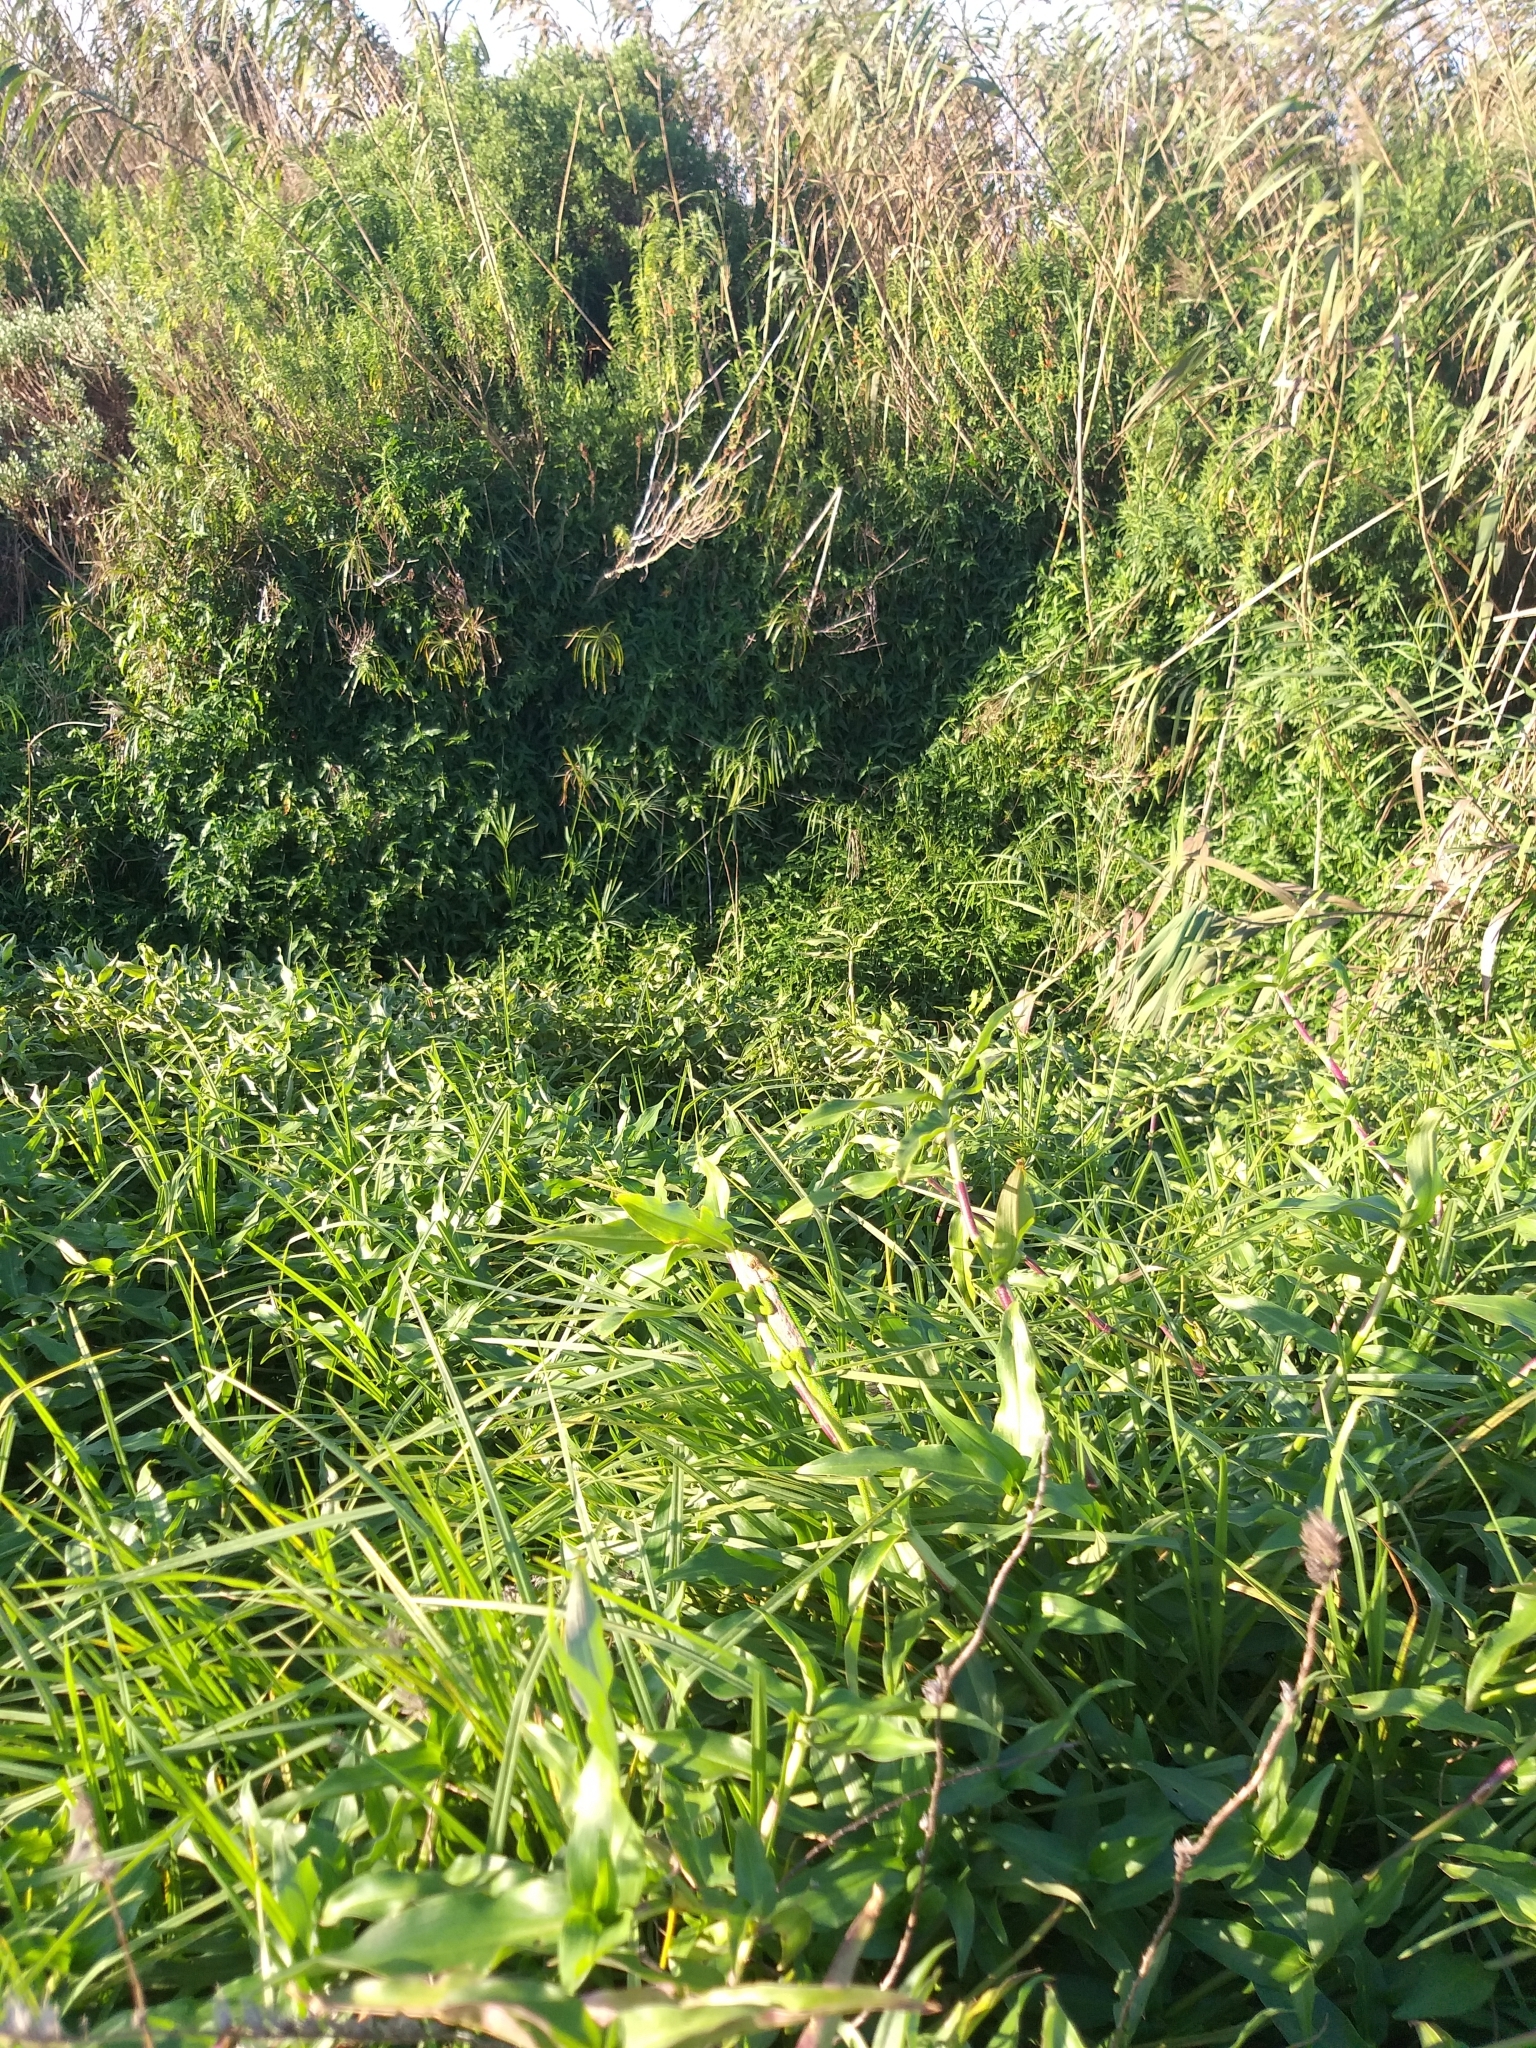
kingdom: Animalia
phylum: Chordata
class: Squamata
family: Chamaeleonidae
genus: Bradypodion
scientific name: Bradypodion pumilum
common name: Cape dwarf chameleon
